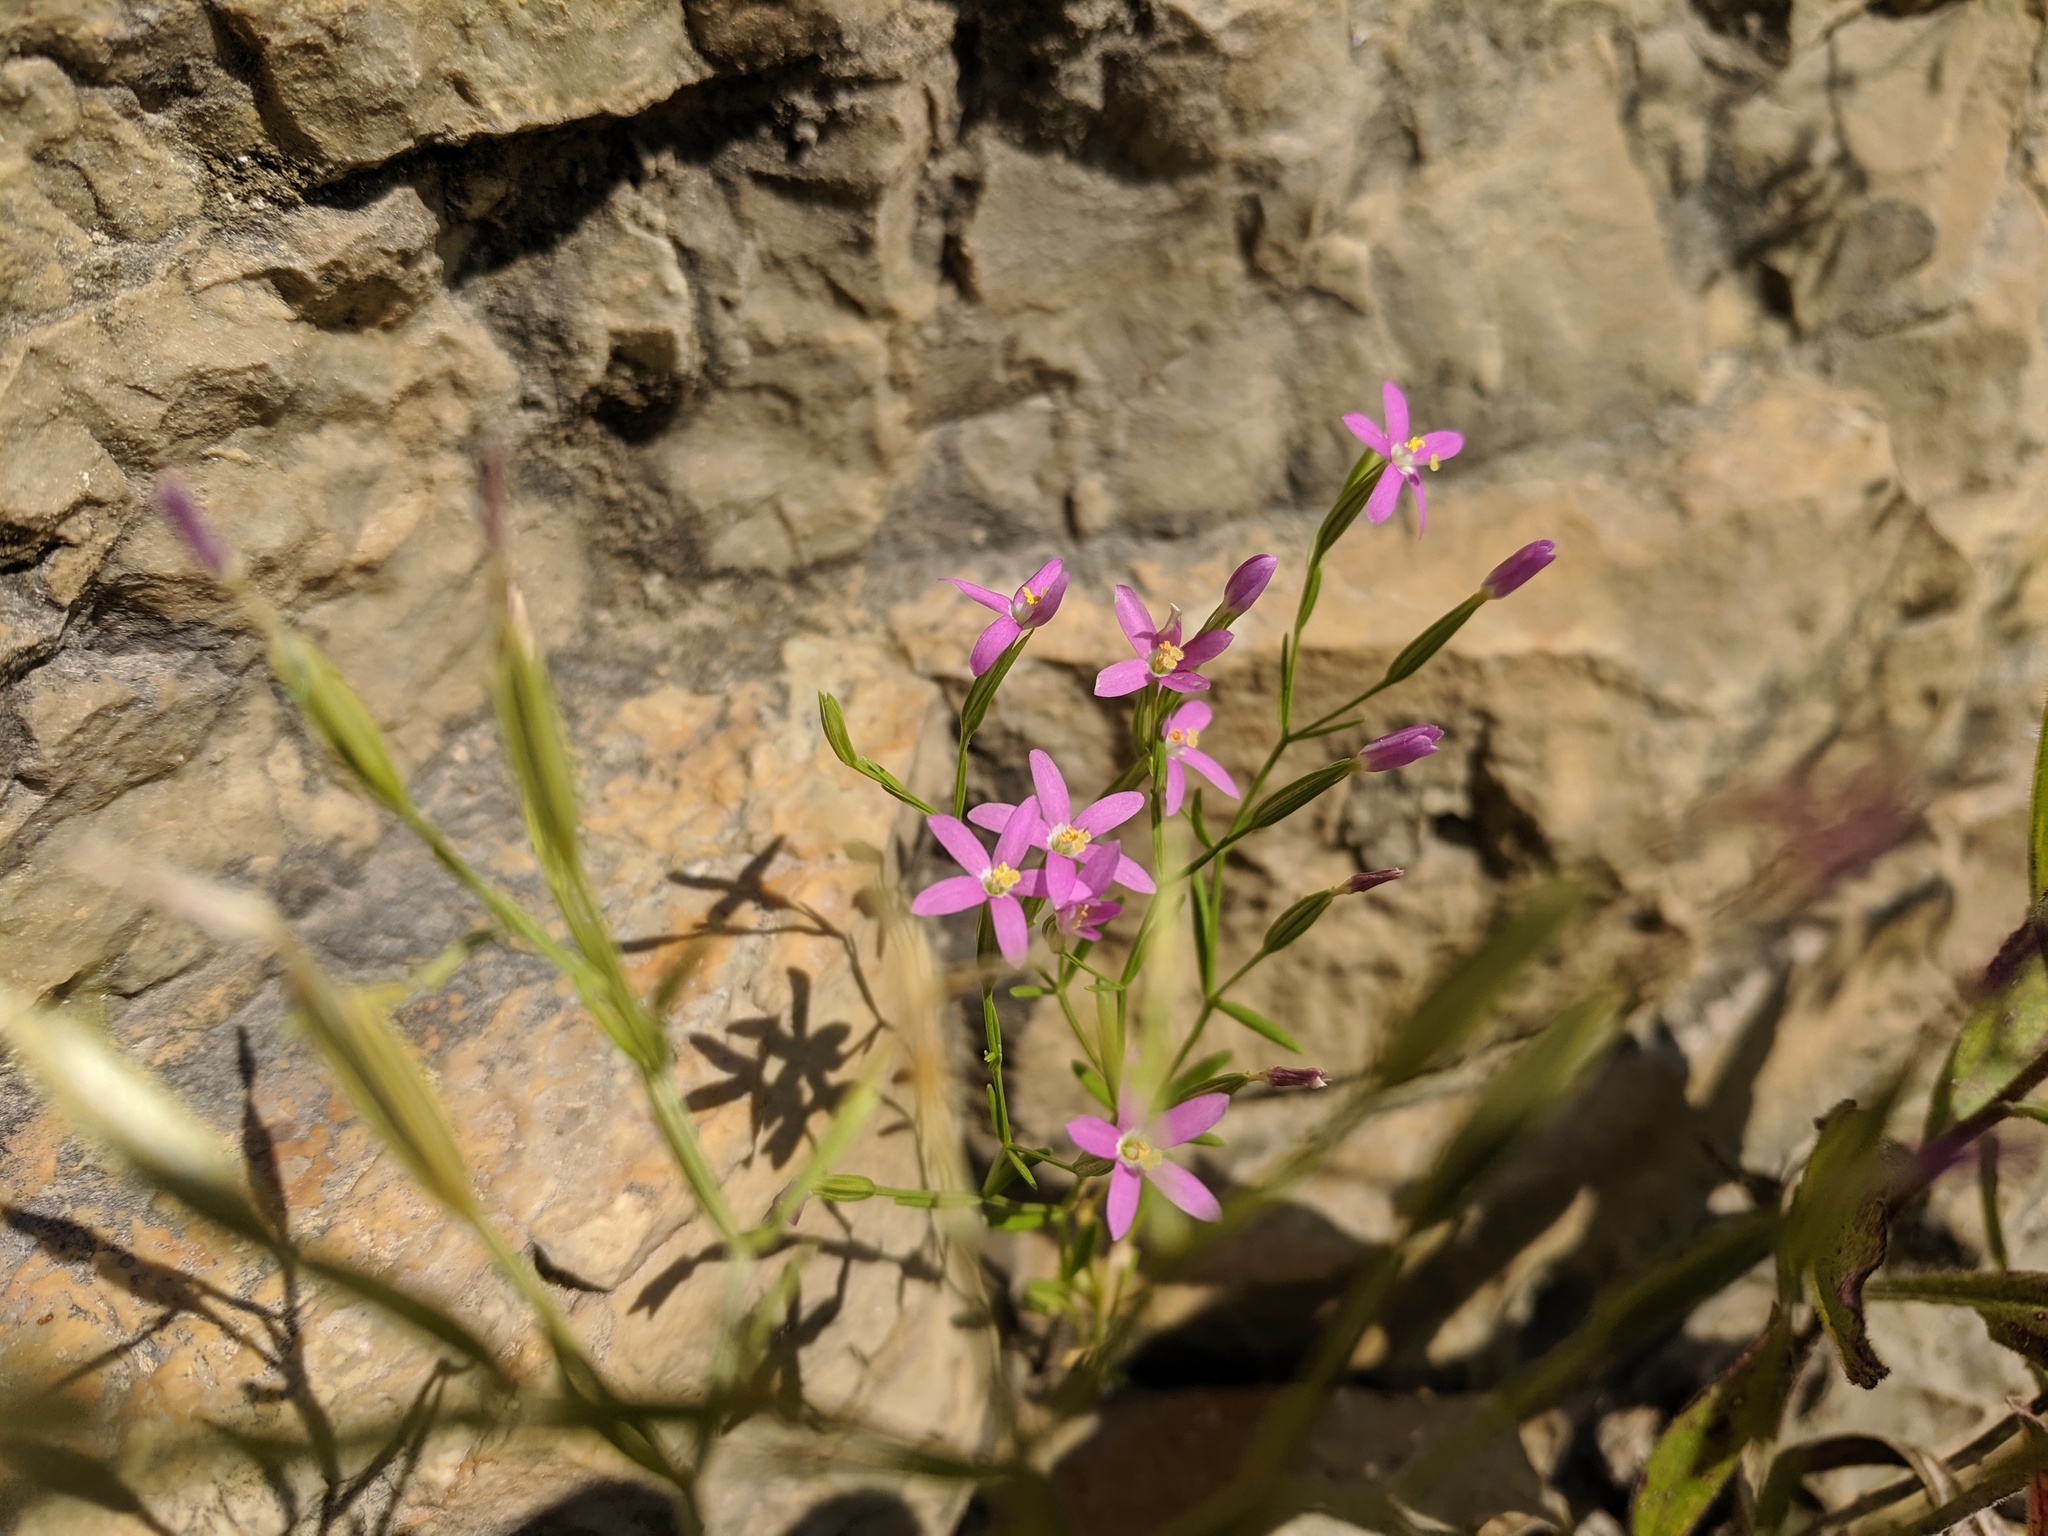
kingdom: Plantae
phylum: Tracheophyta
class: Magnoliopsida
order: Gentianales
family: Gentianaceae
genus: Zeltnera
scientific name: Zeltnera texensis
